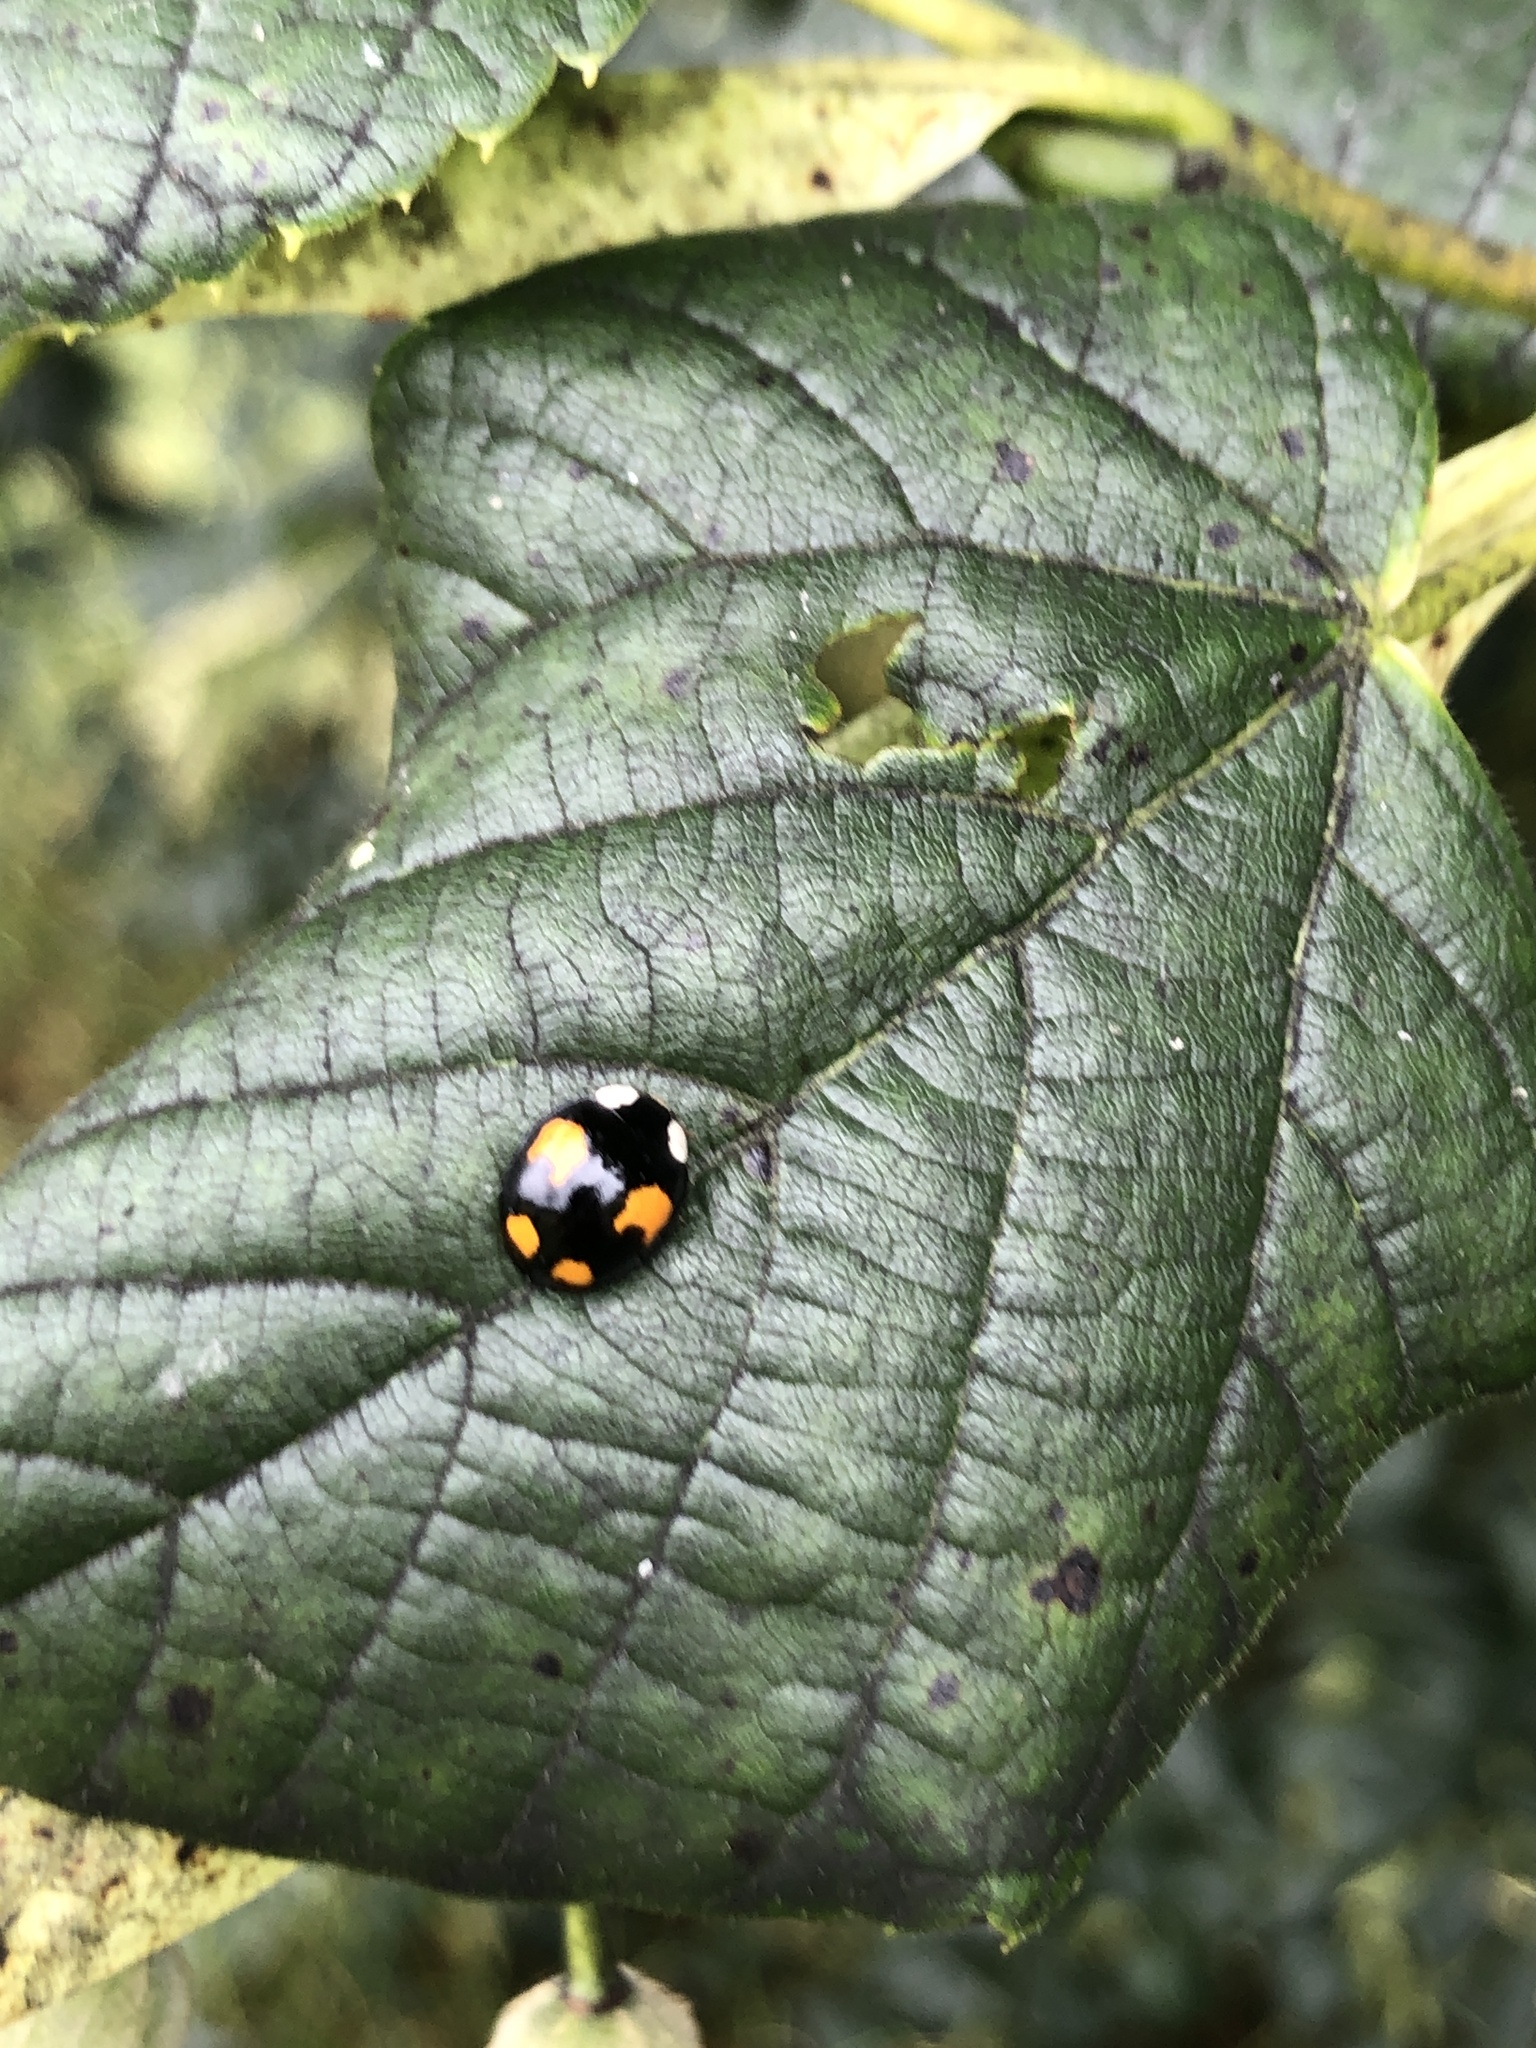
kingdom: Animalia
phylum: Arthropoda
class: Insecta
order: Coleoptera
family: Coccinellidae
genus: Harmonia
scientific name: Harmonia axyridis
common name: Harlequin ladybird
